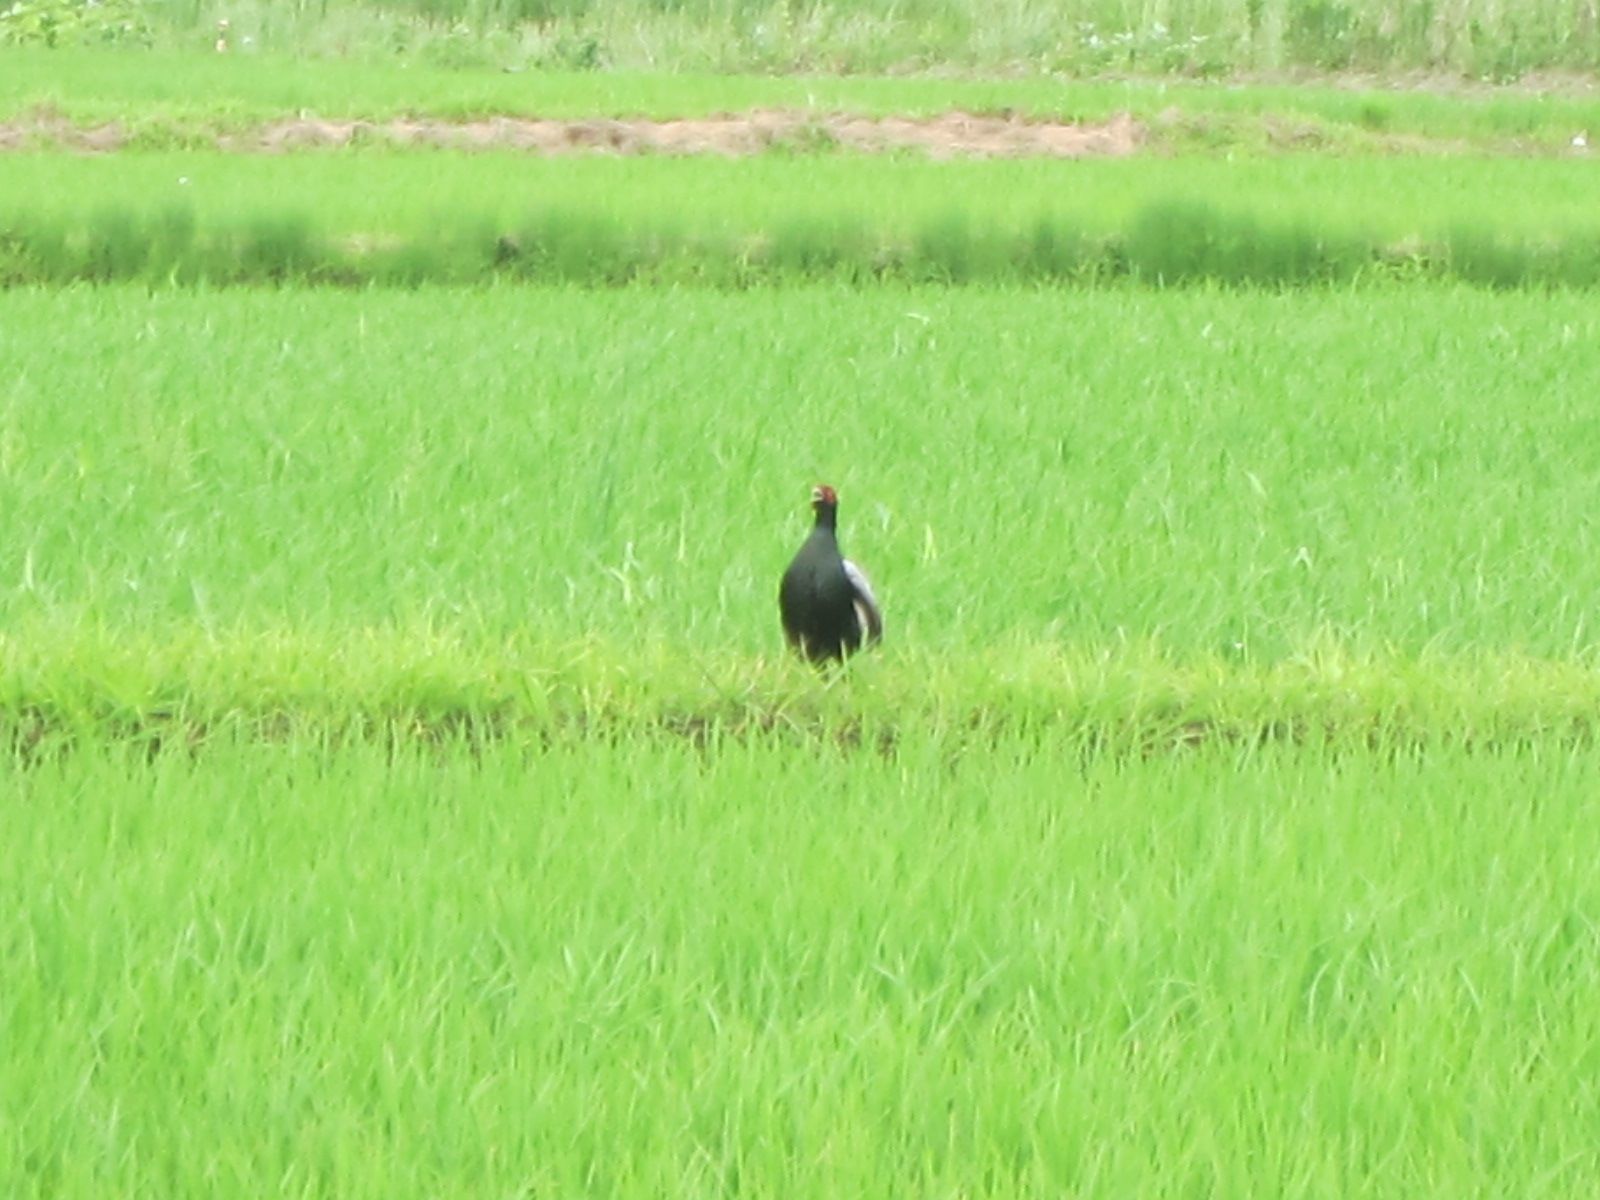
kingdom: Animalia
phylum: Chordata
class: Aves
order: Galliformes
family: Phasianidae
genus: Phasianus
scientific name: Phasianus versicolor
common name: Green pheasant
